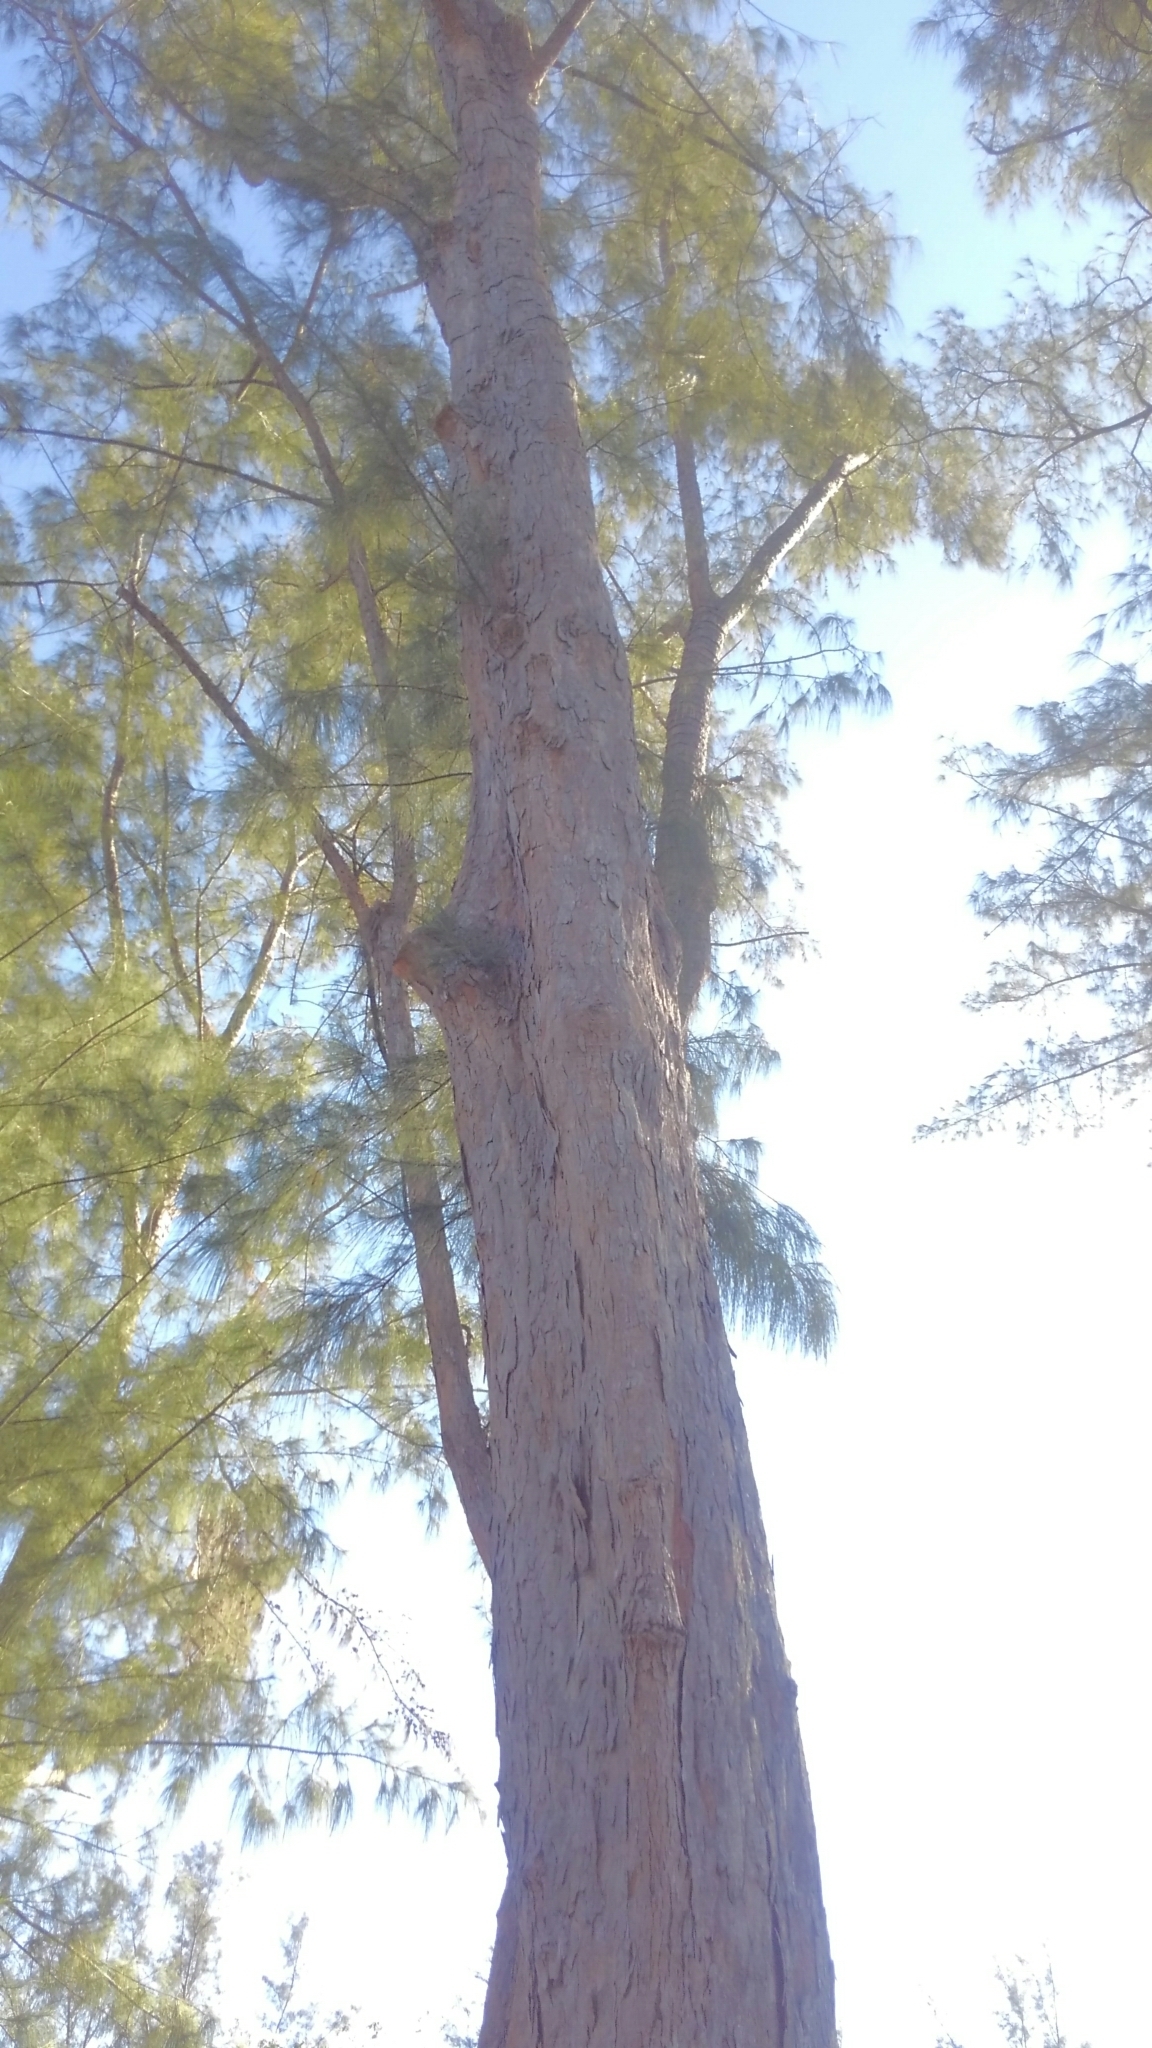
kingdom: Plantae
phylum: Tracheophyta
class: Magnoliopsida
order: Fagales
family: Casuarinaceae
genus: Casuarina
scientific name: Casuarina equisetifolia
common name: Beach sheoak
